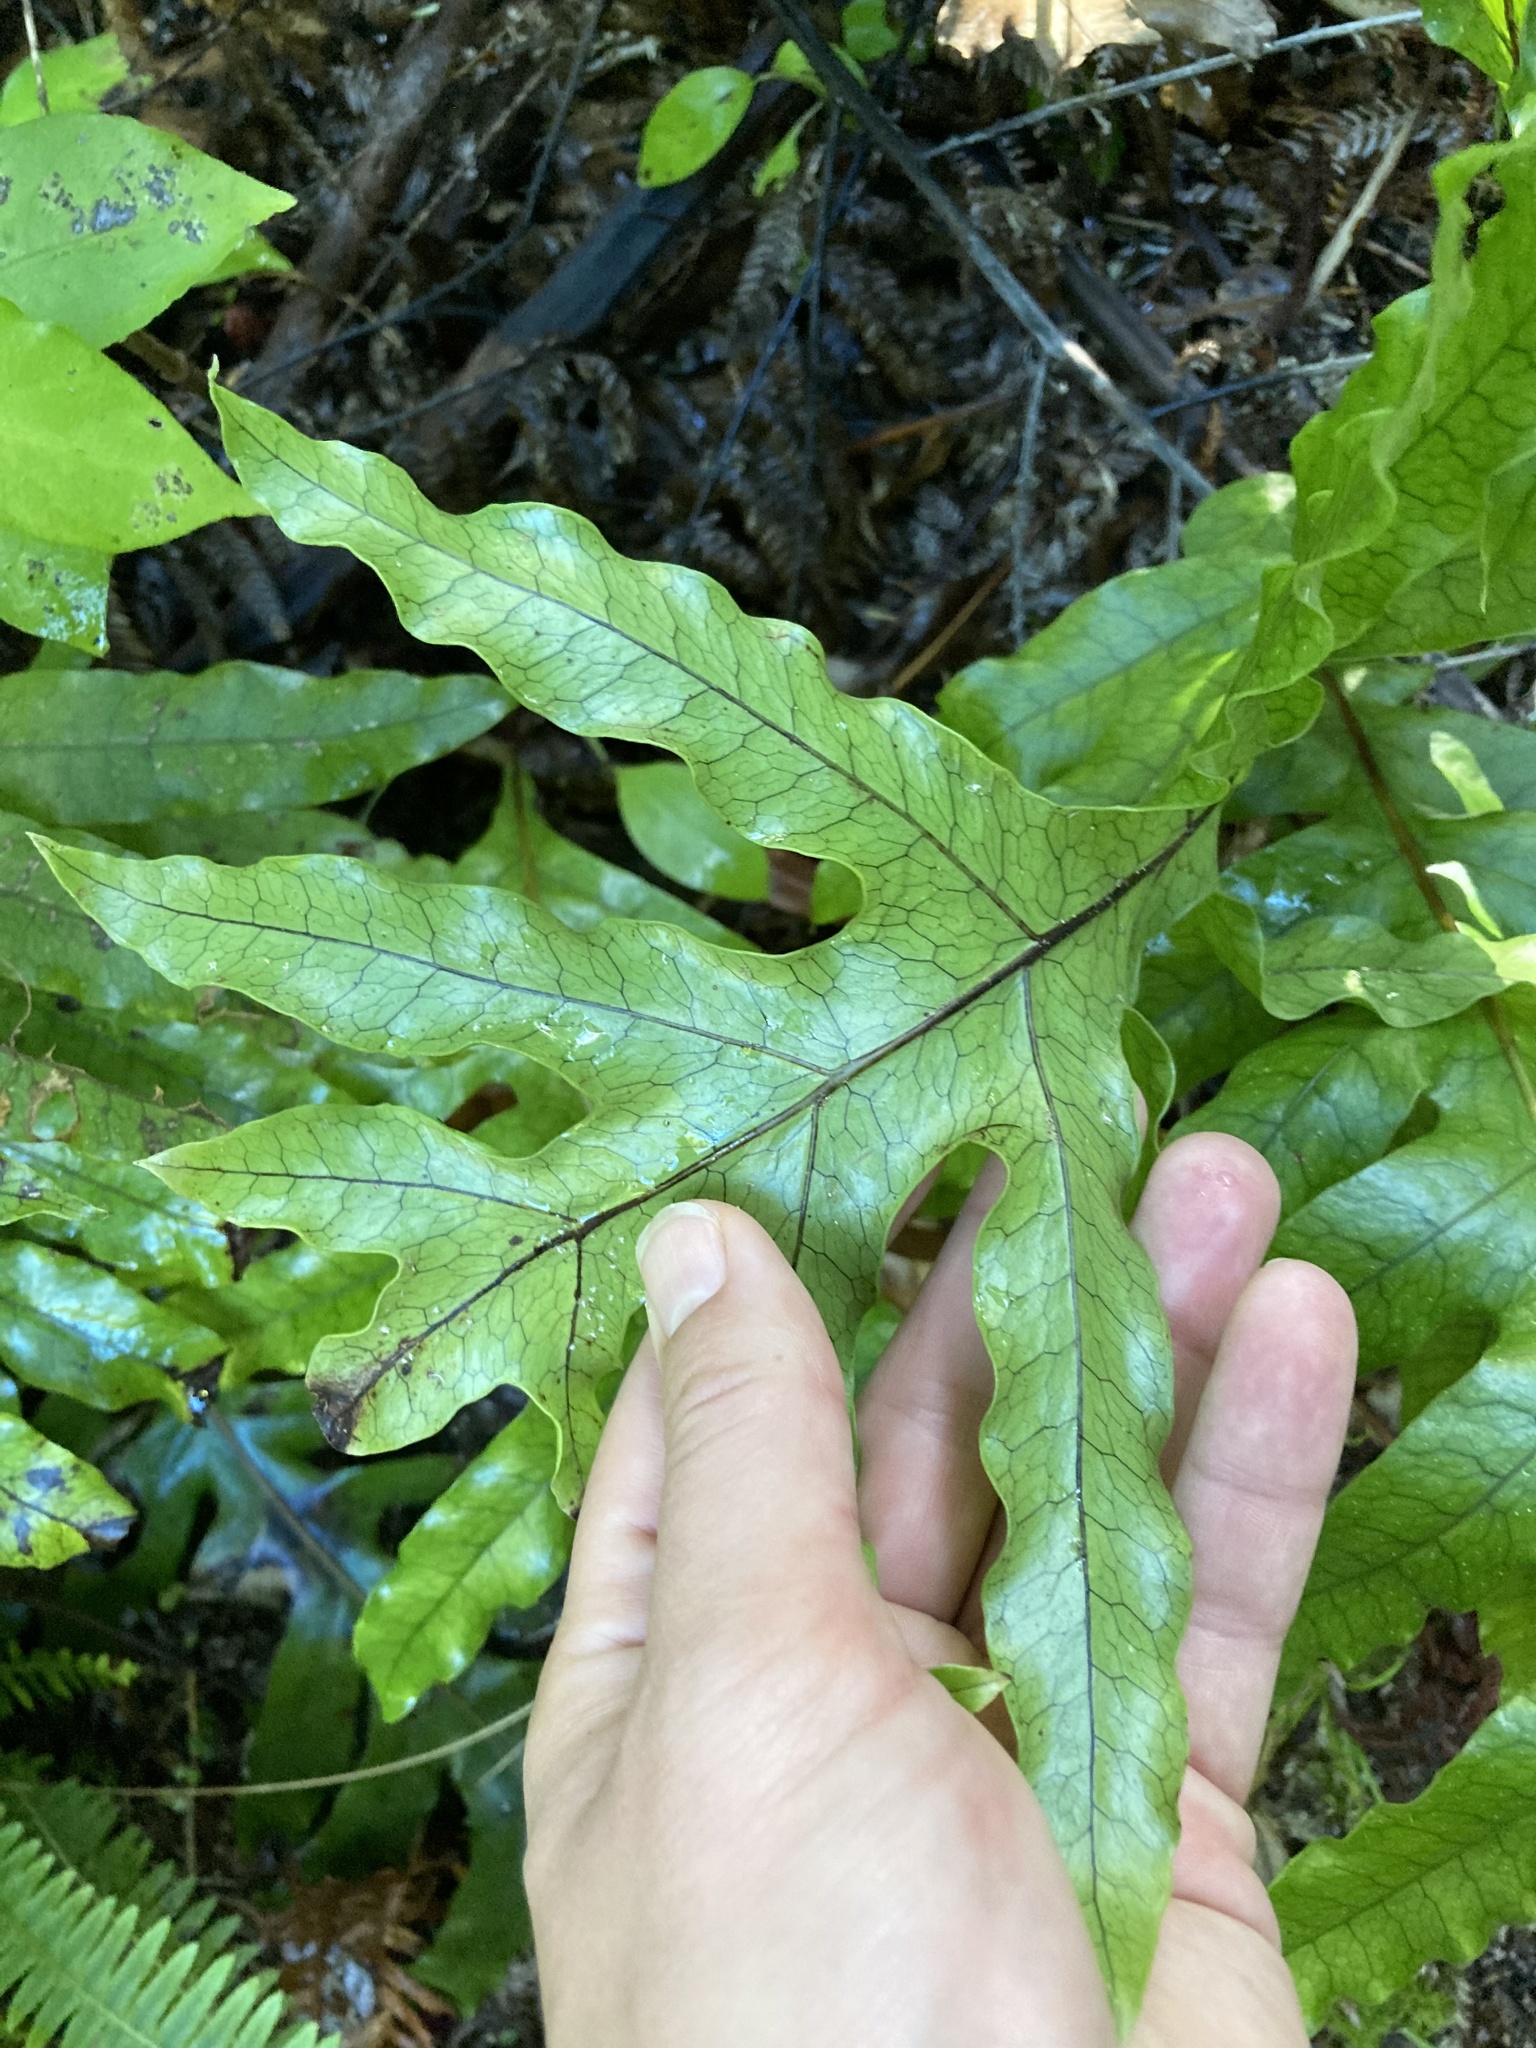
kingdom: Plantae
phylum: Tracheophyta
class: Polypodiopsida
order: Polypodiales
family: Polypodiaceae
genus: Lecanopteris
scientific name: Lecanopteris pustulata
